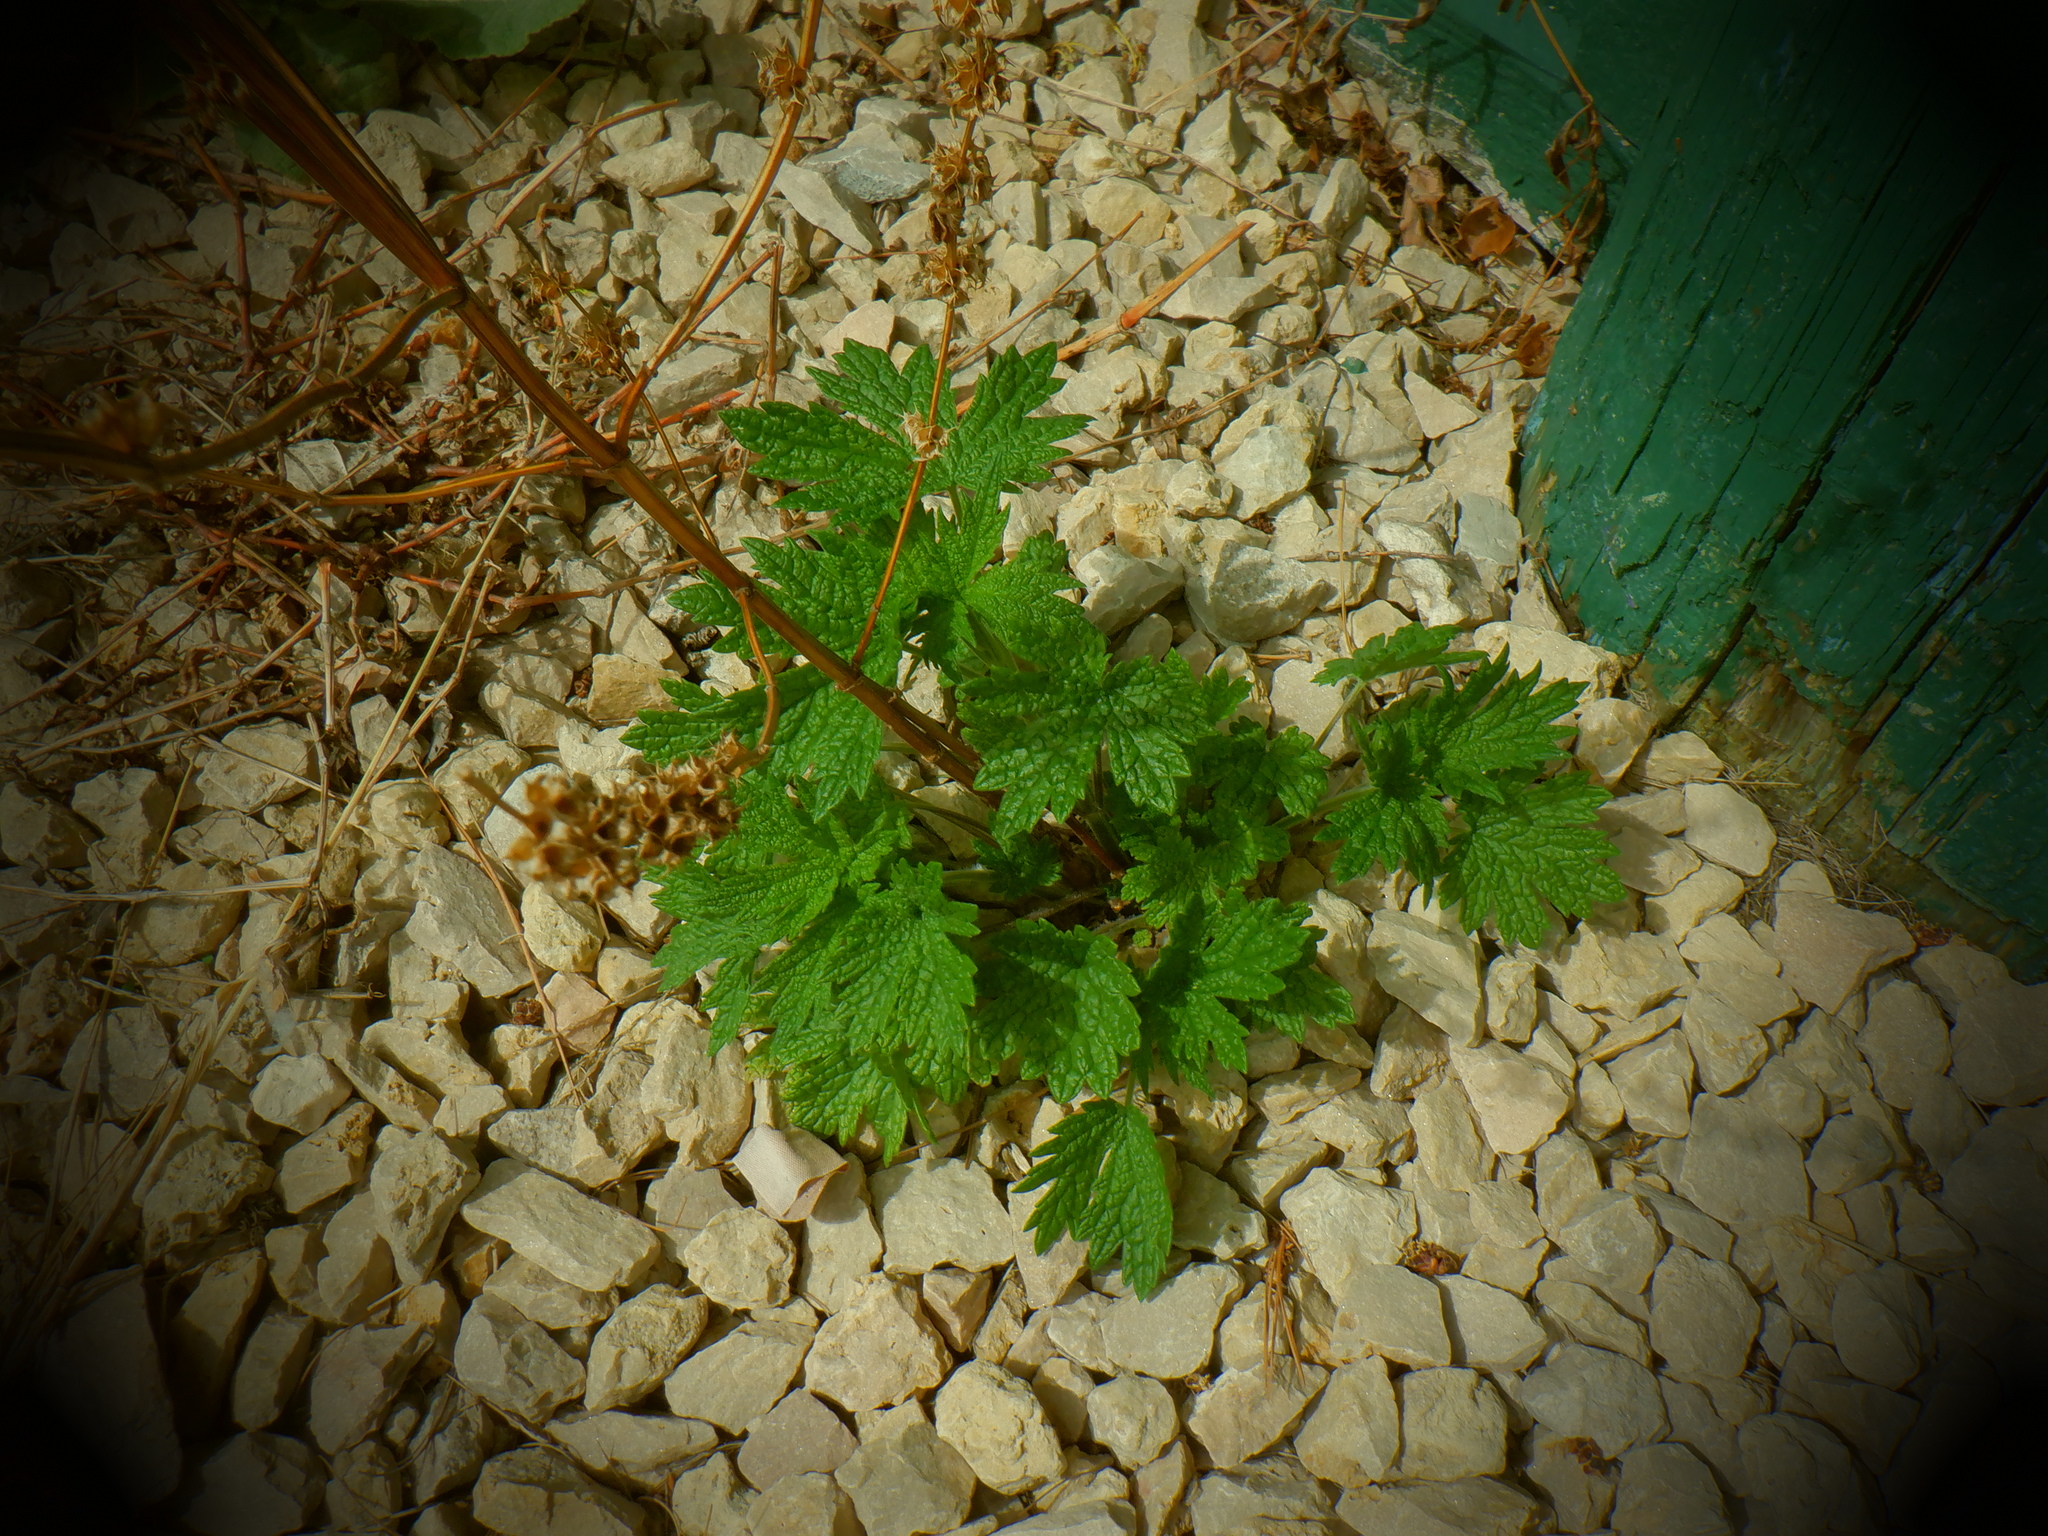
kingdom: Plantae
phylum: Tracheophyta
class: Magnoliopsida
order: Lamiales
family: Lamiaceae
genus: Leonurus
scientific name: Leonurus cardiaca
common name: Motherwort
